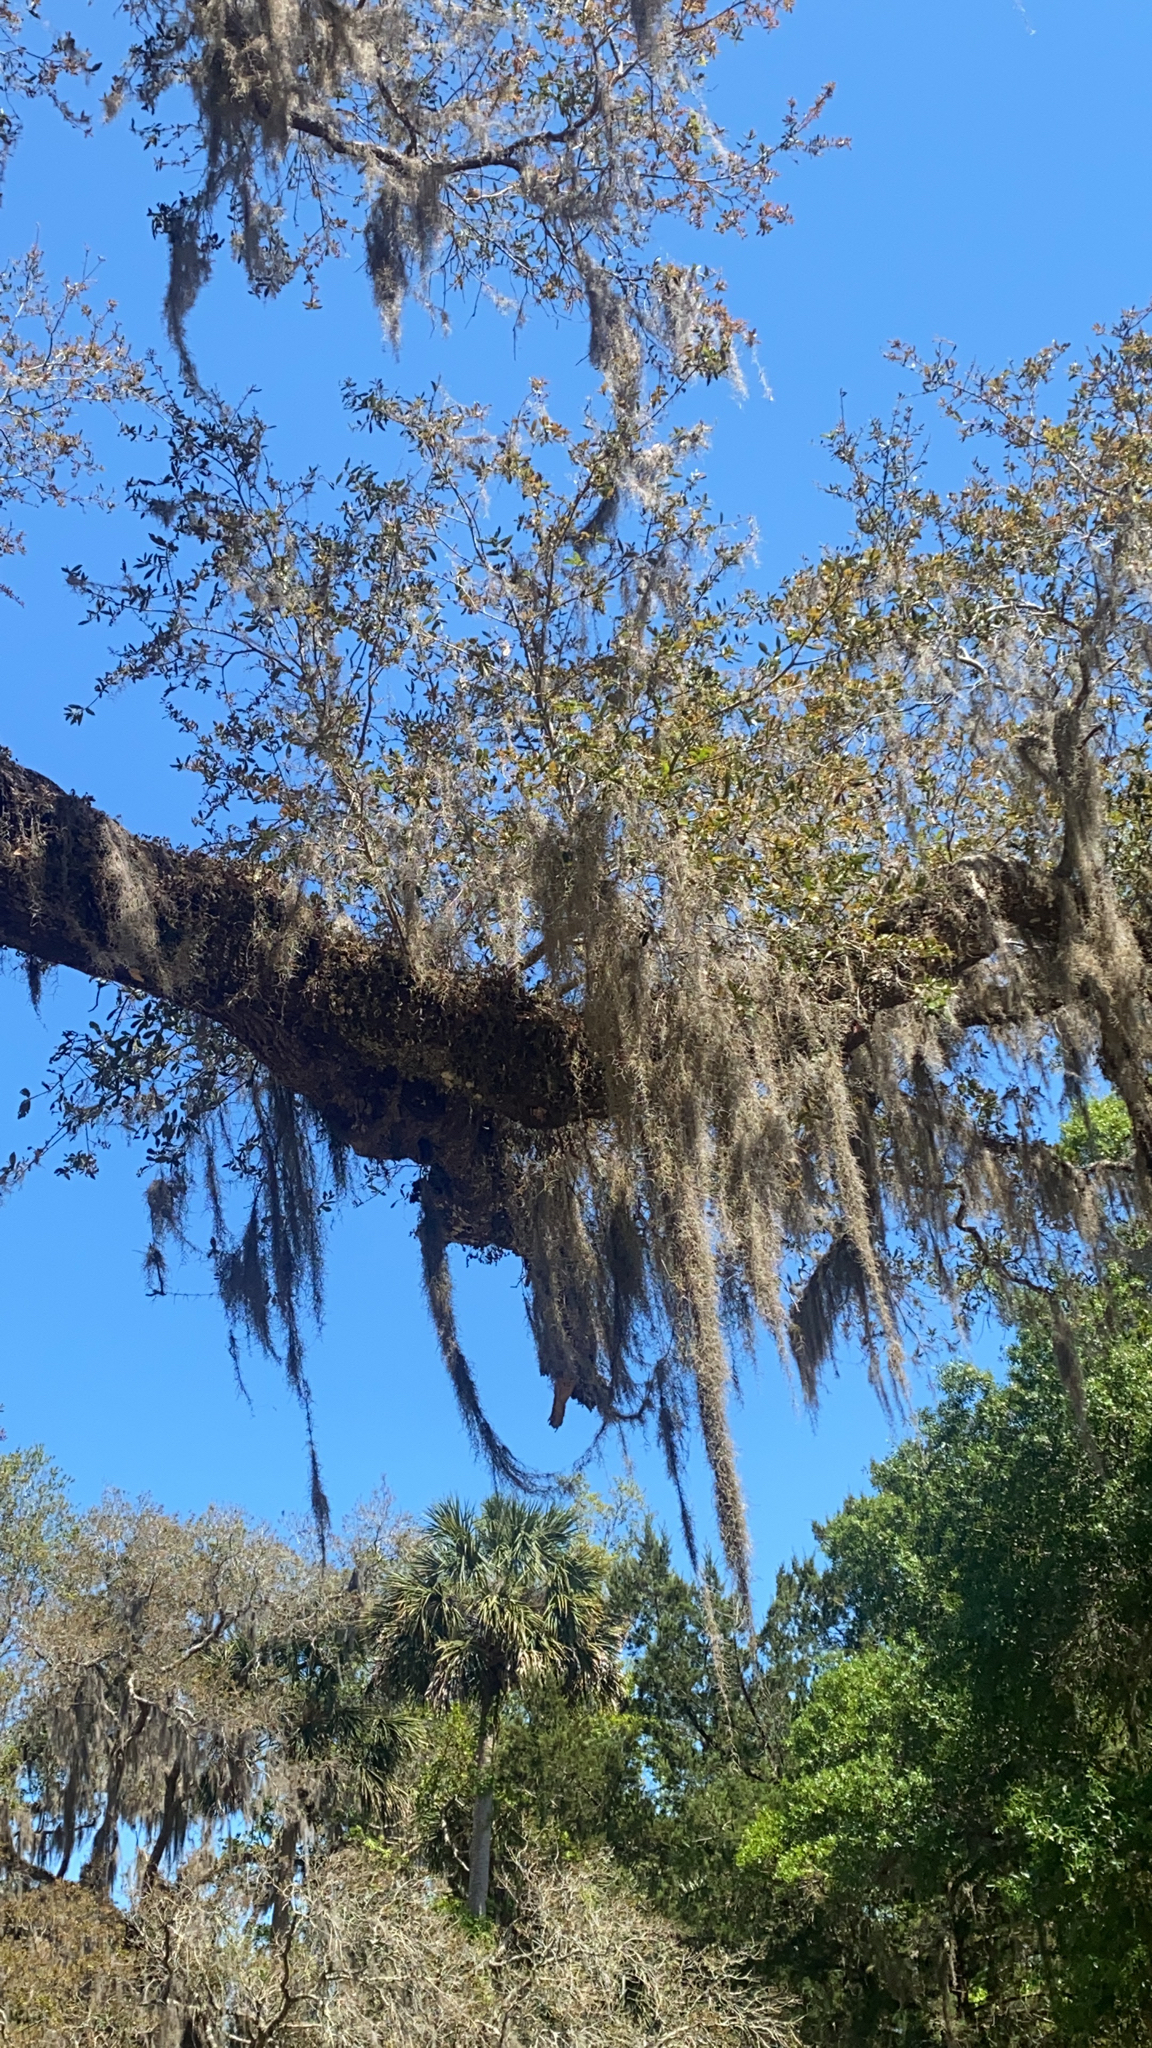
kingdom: Plantae
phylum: Tracheophyta
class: Liliopsida
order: Poales
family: Bromeliaceae
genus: Tillandsia
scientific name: Tillandsia usneoides
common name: Spanish moss
